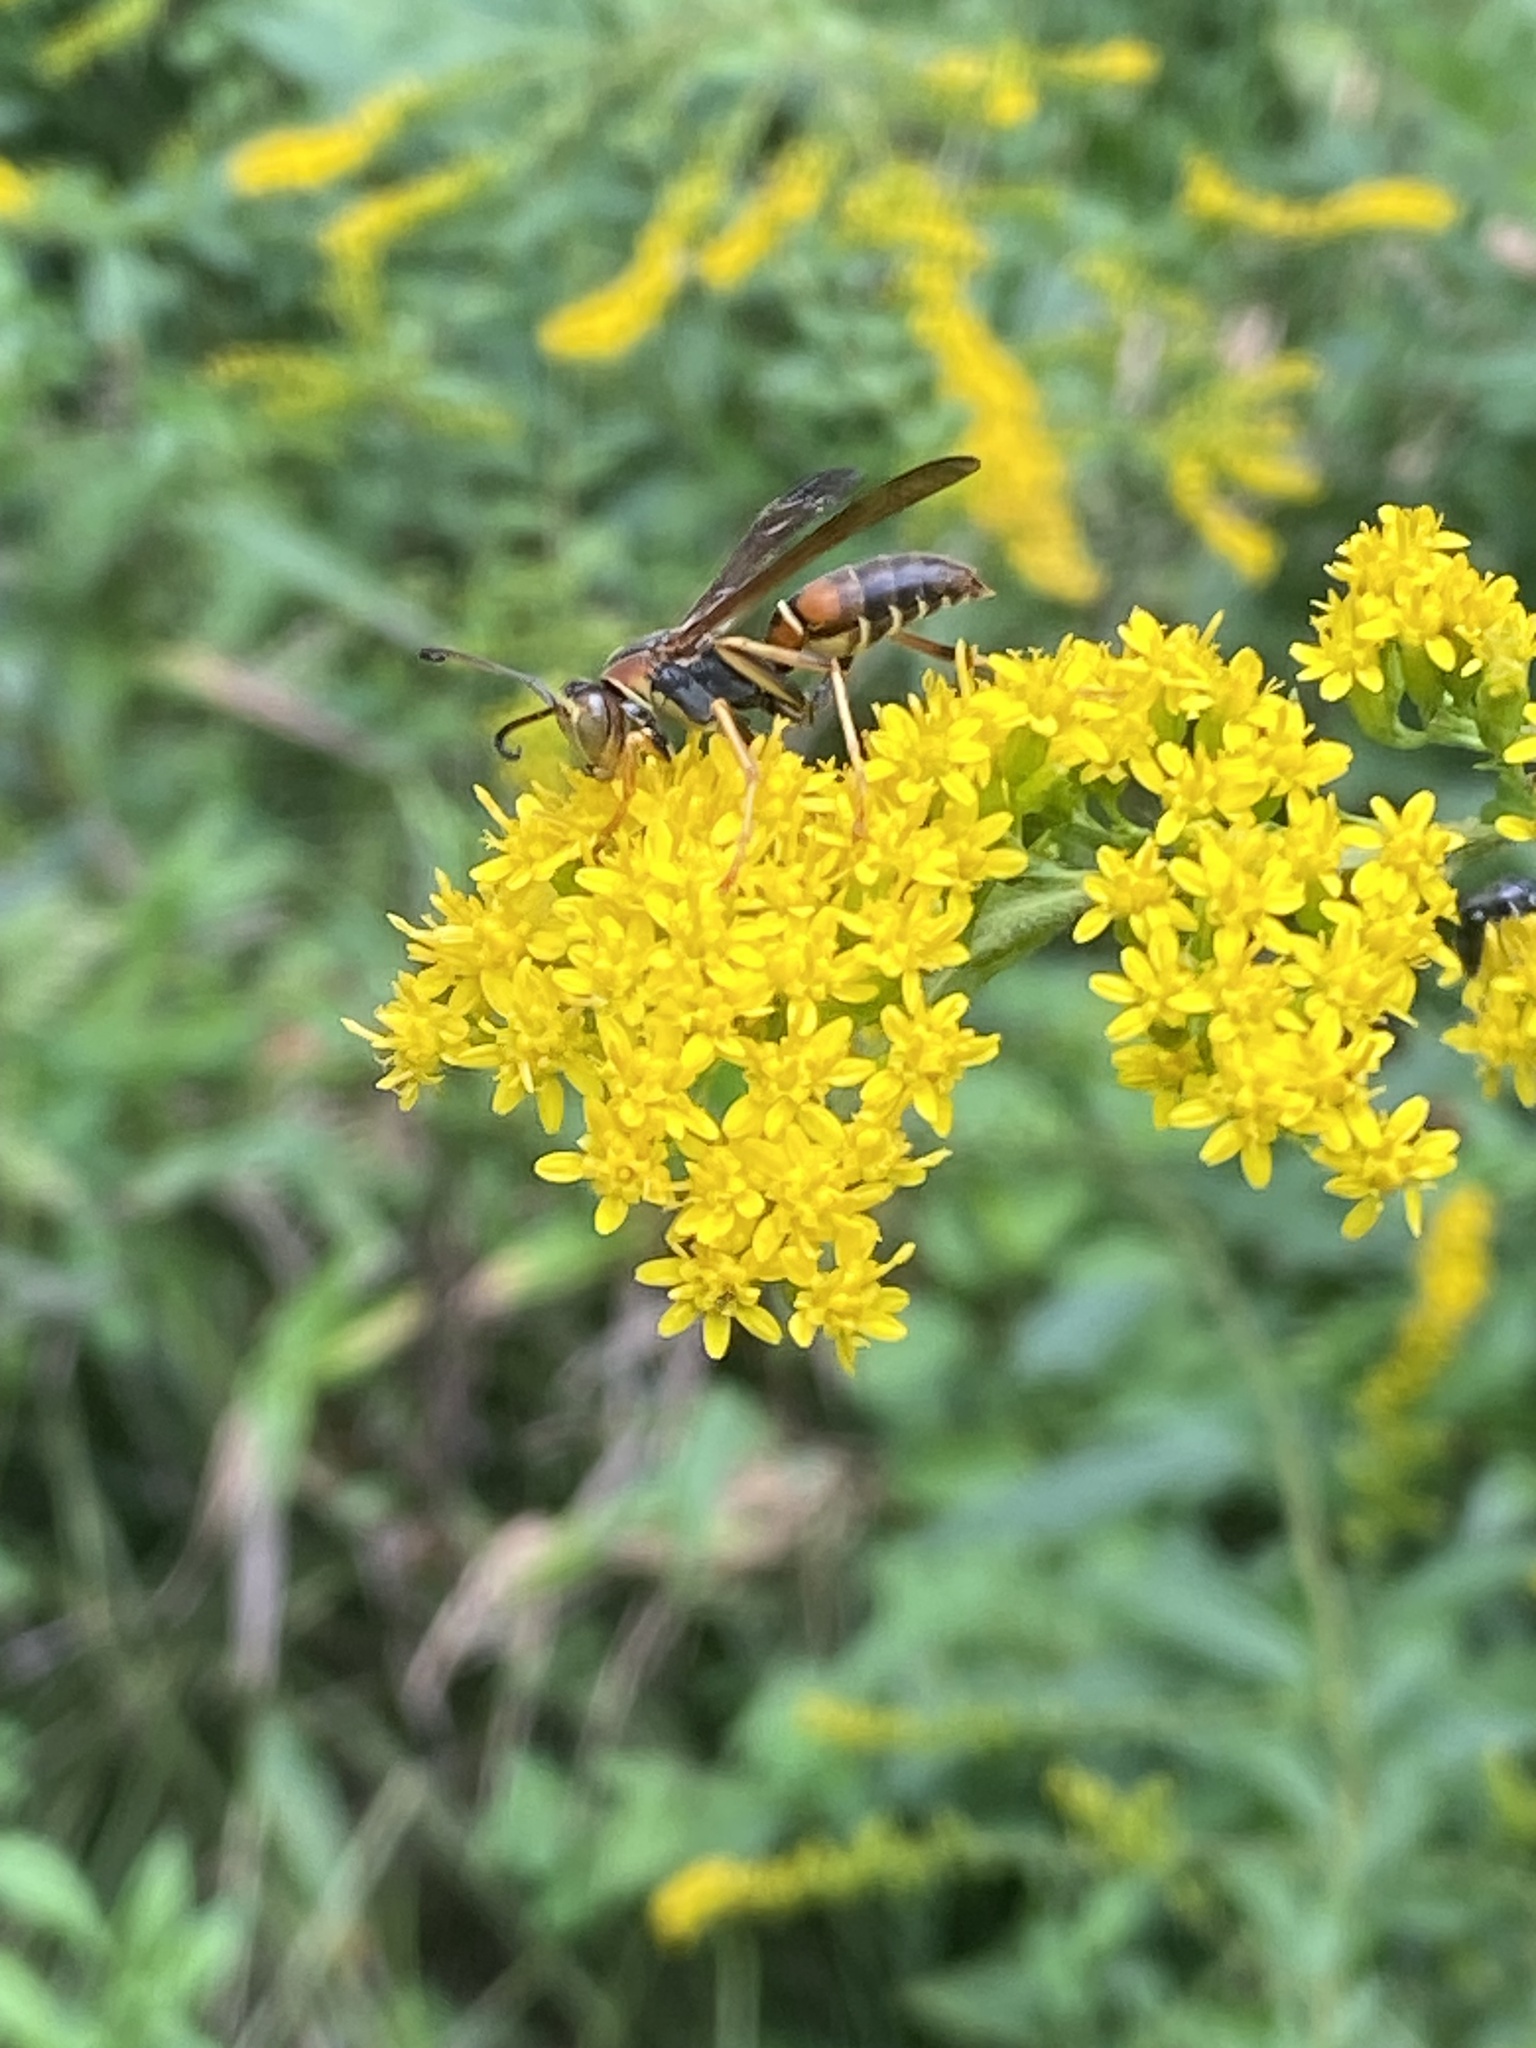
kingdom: Animalia
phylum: Arthropoda
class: Insecta
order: Hymenoptera
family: Eumenidae
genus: Polistes
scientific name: Polistes fuscatus
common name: Dark paper wasp
